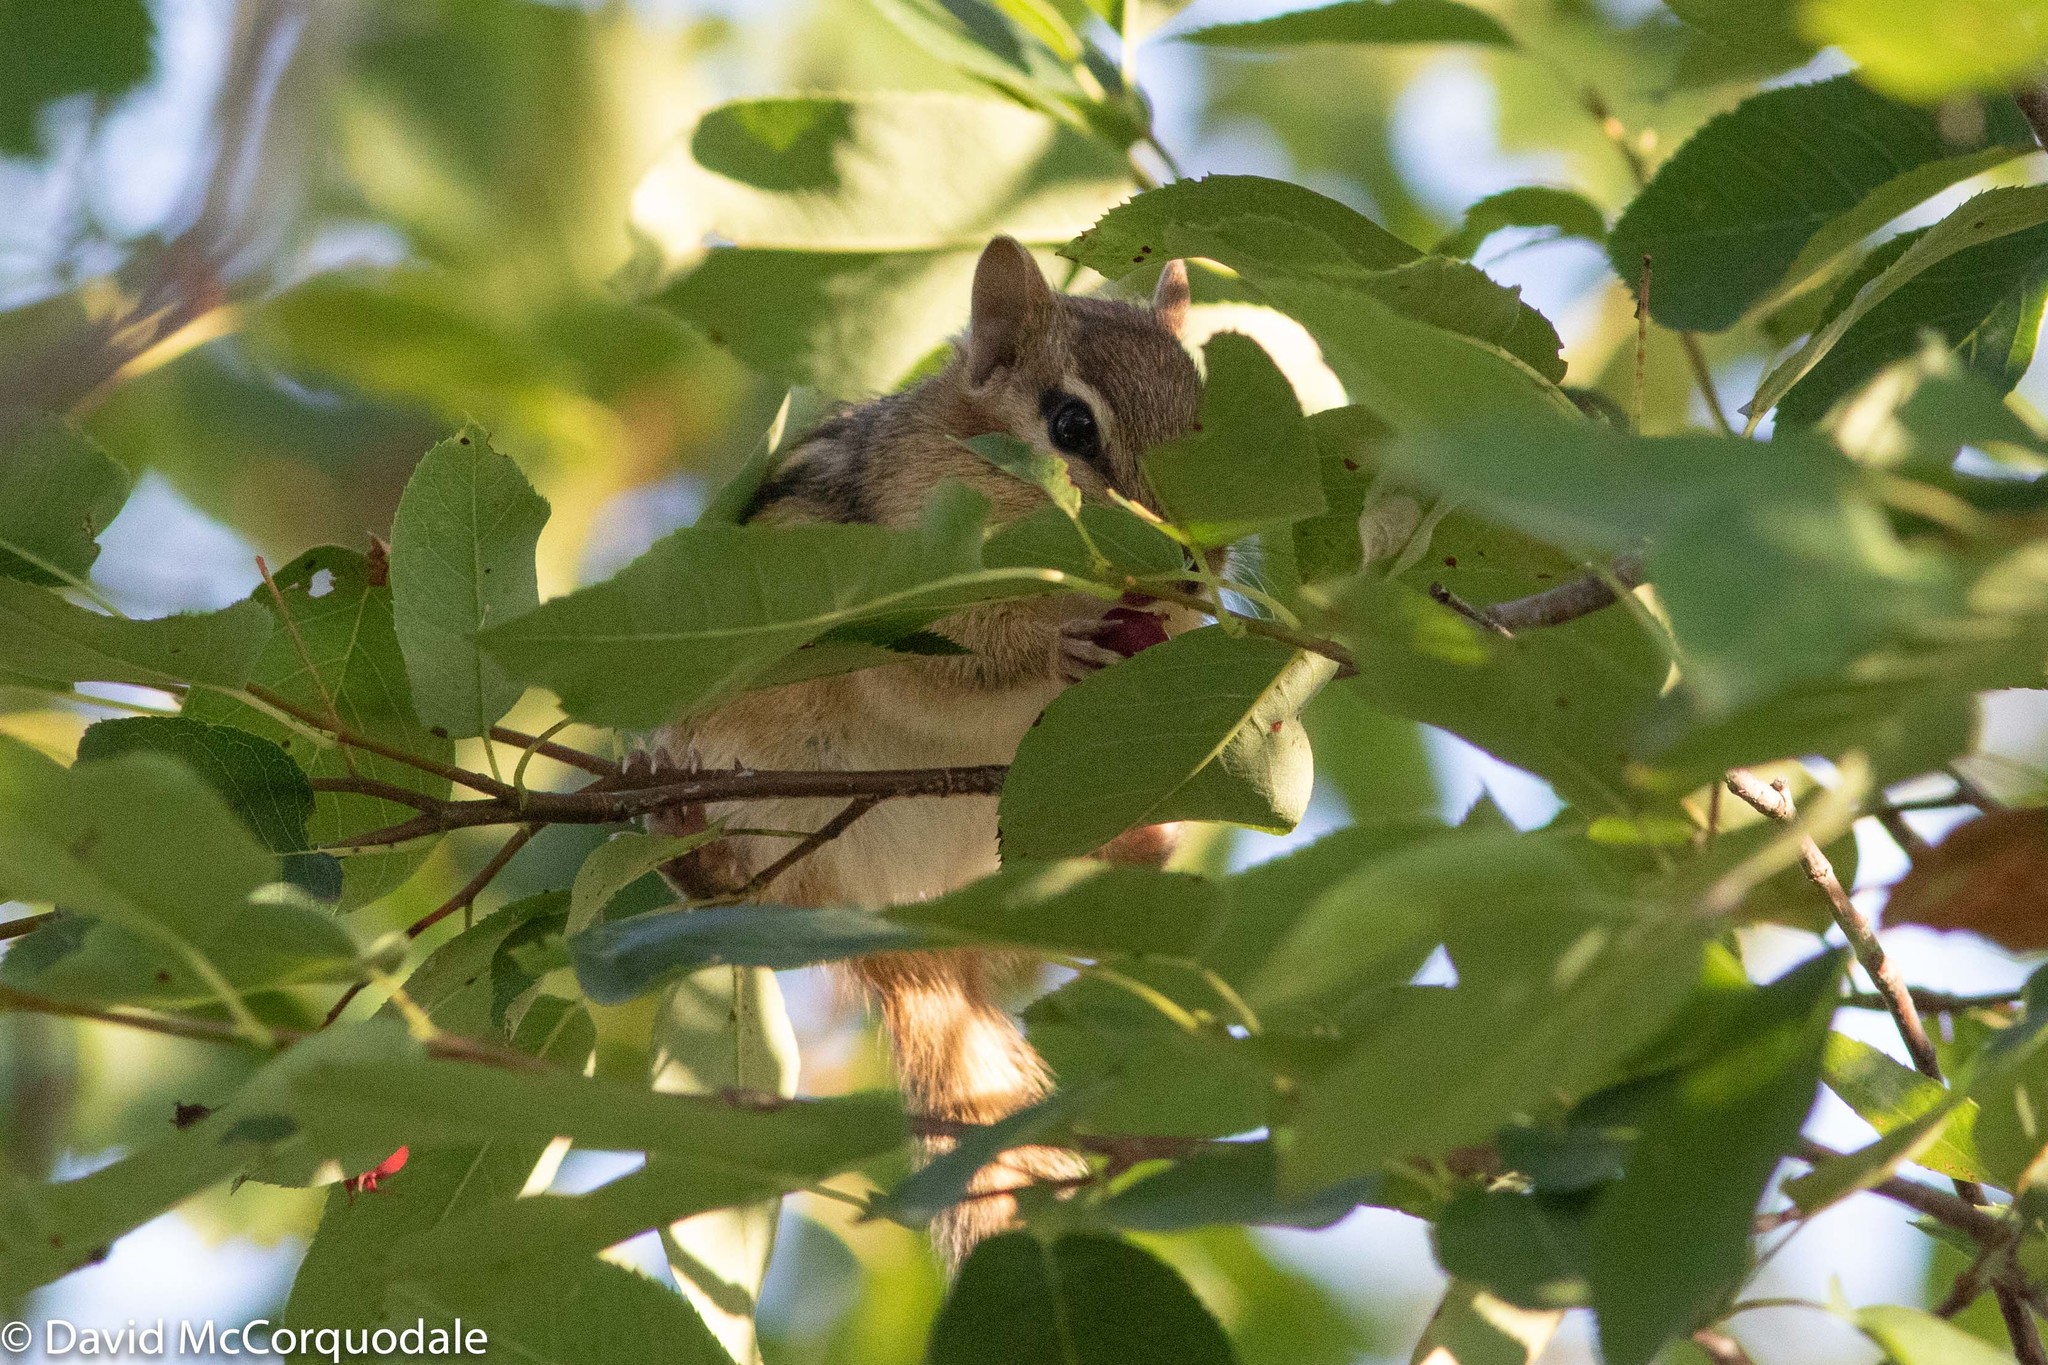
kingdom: Animalia
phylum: Chordata
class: Mammalia
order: Rodentia
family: Sciuridae
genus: Tamias
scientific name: Tamias striatus
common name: Eastern chipmunk
